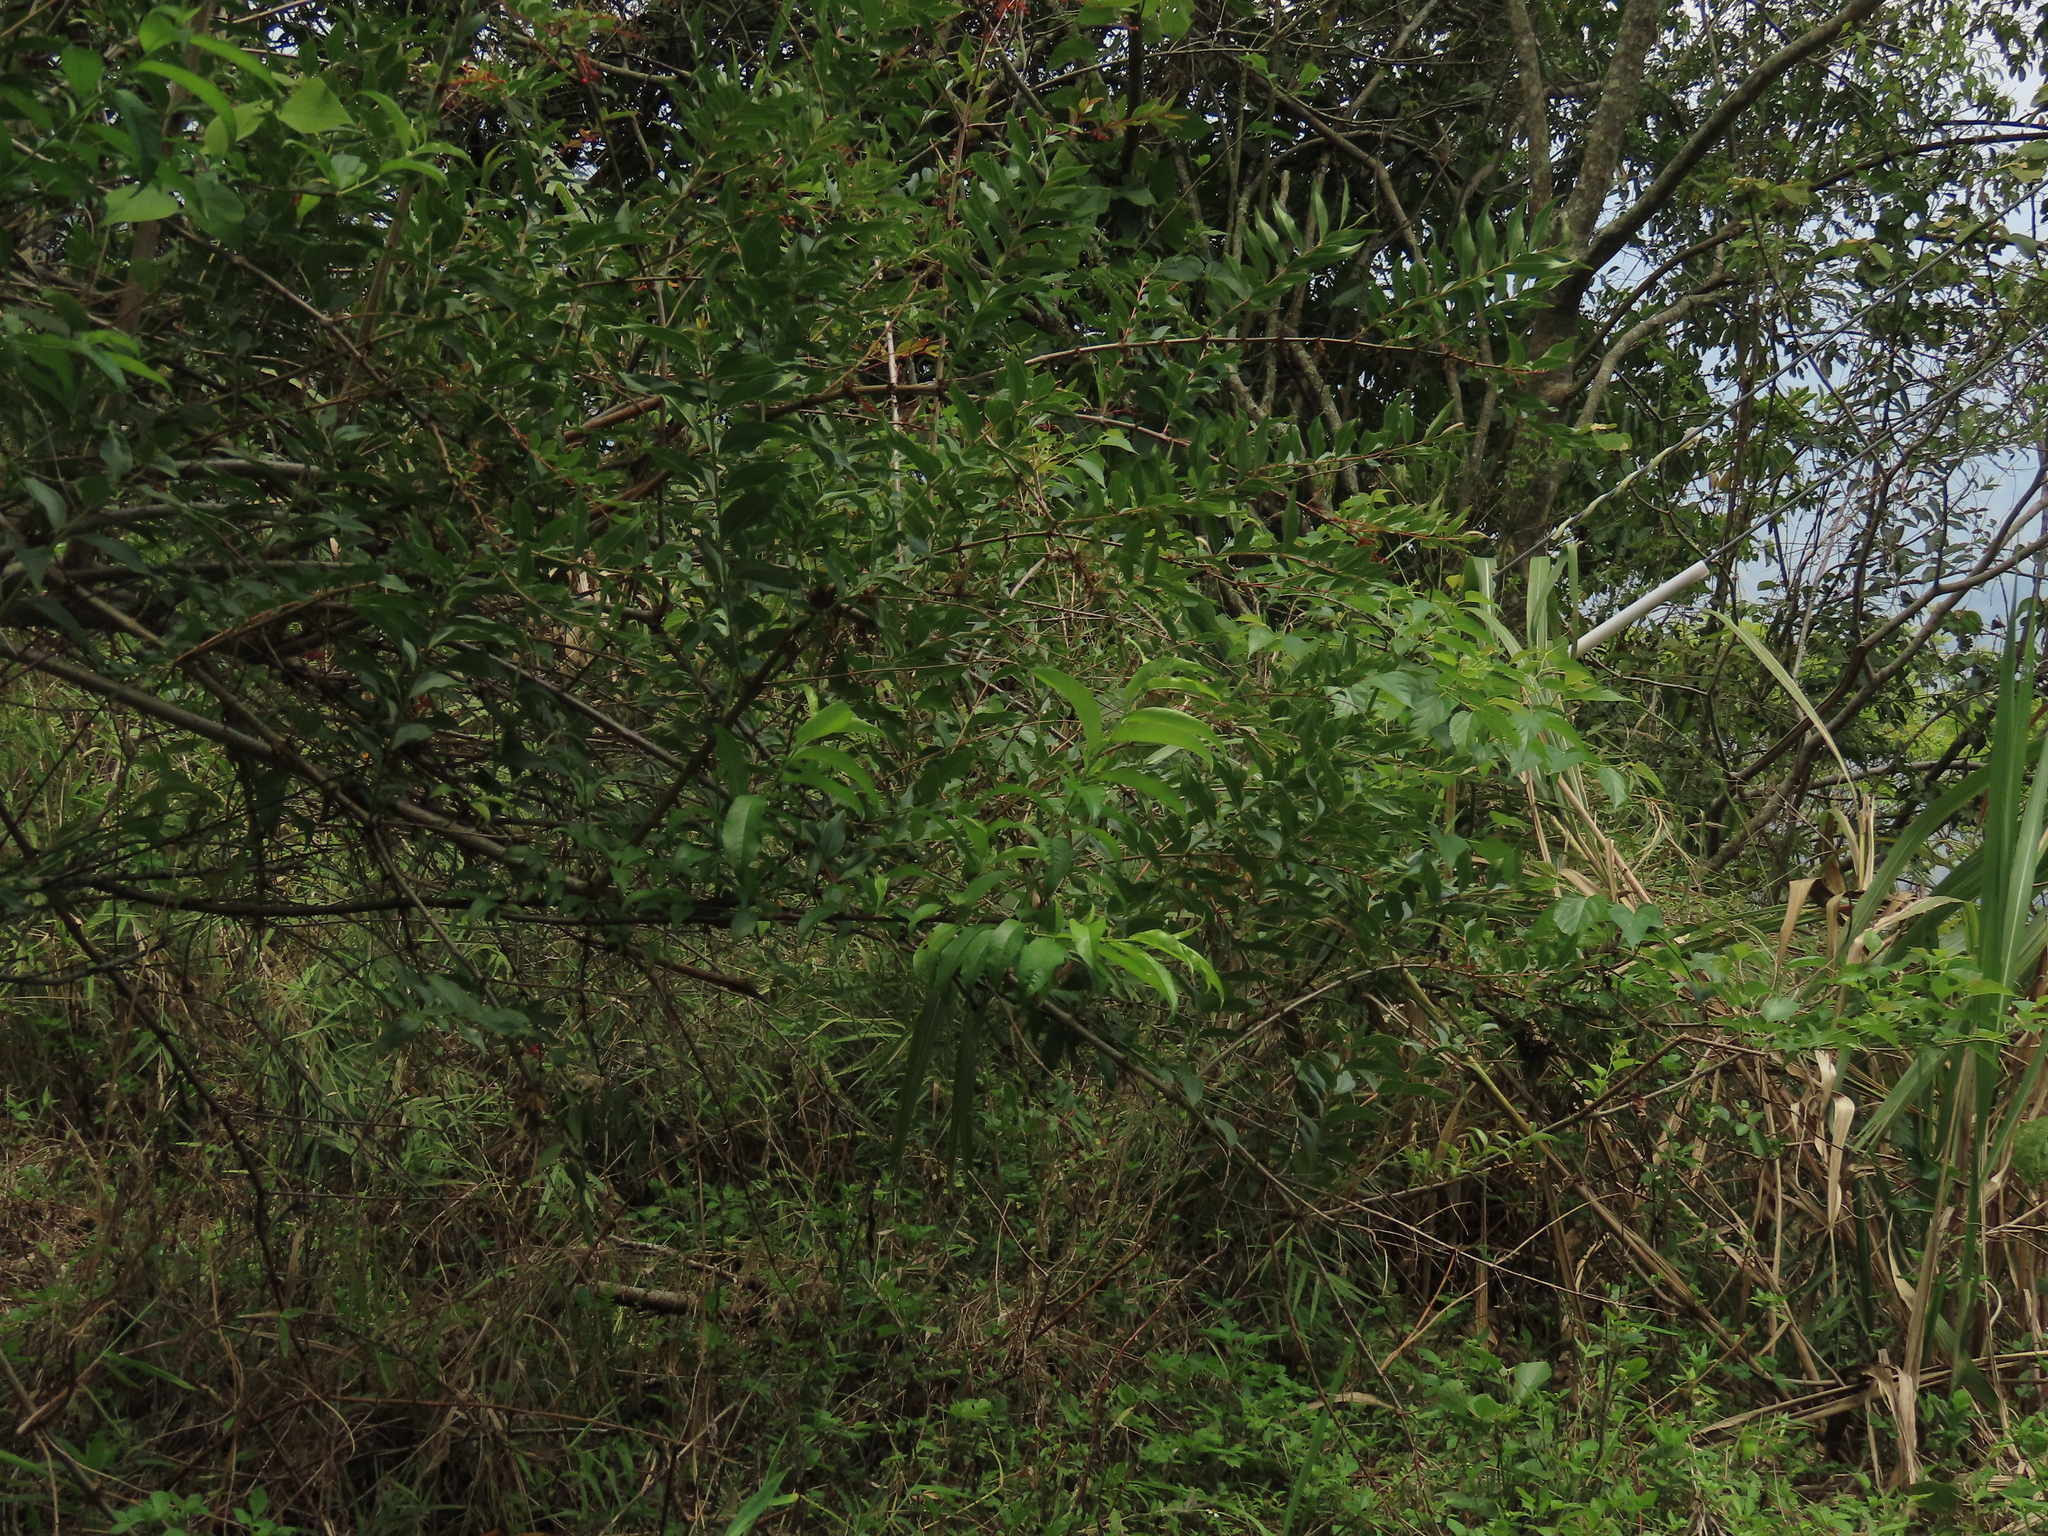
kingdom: Plantae
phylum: Tracheophyta
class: Magnoliopsida
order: Cucurbitales
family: Coriariaceae
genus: Coriaria
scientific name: Coriaria japonica
